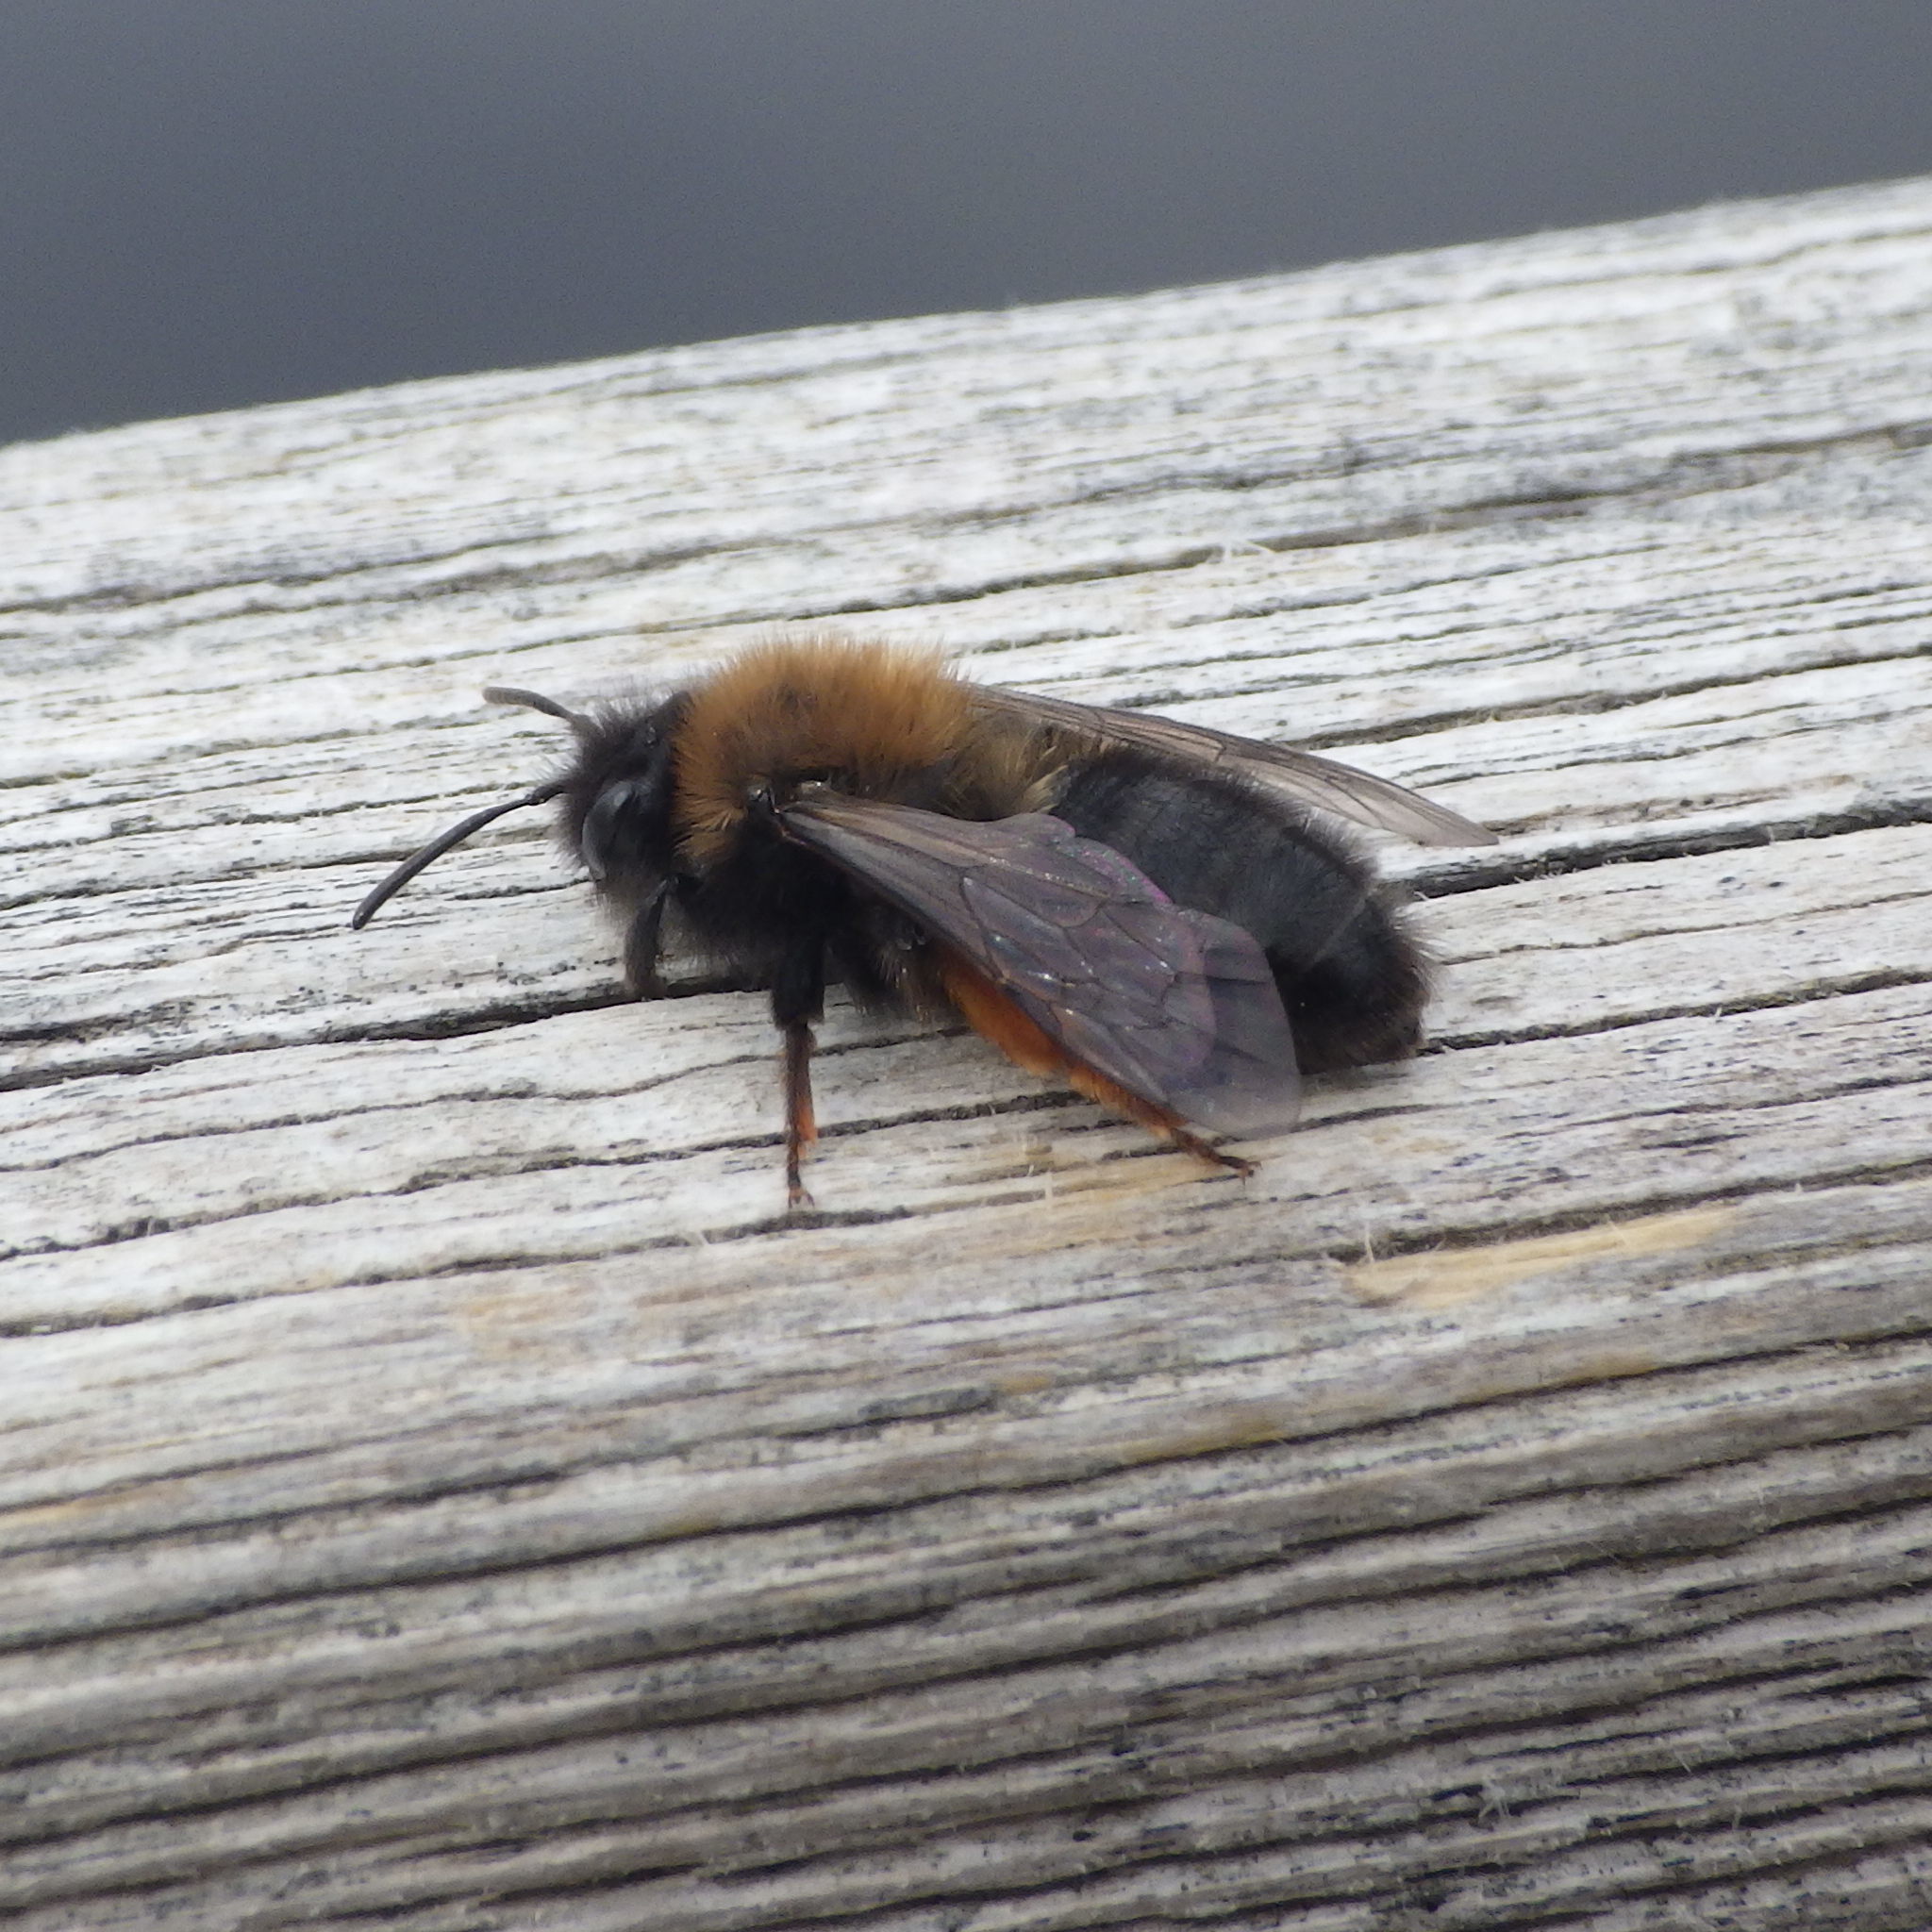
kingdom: Animalia
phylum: Arthropoda
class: Insecta
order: Hymenoptera
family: Andrenidae
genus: Andrena
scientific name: Andrena clarkella
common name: Clarke's mining bee
